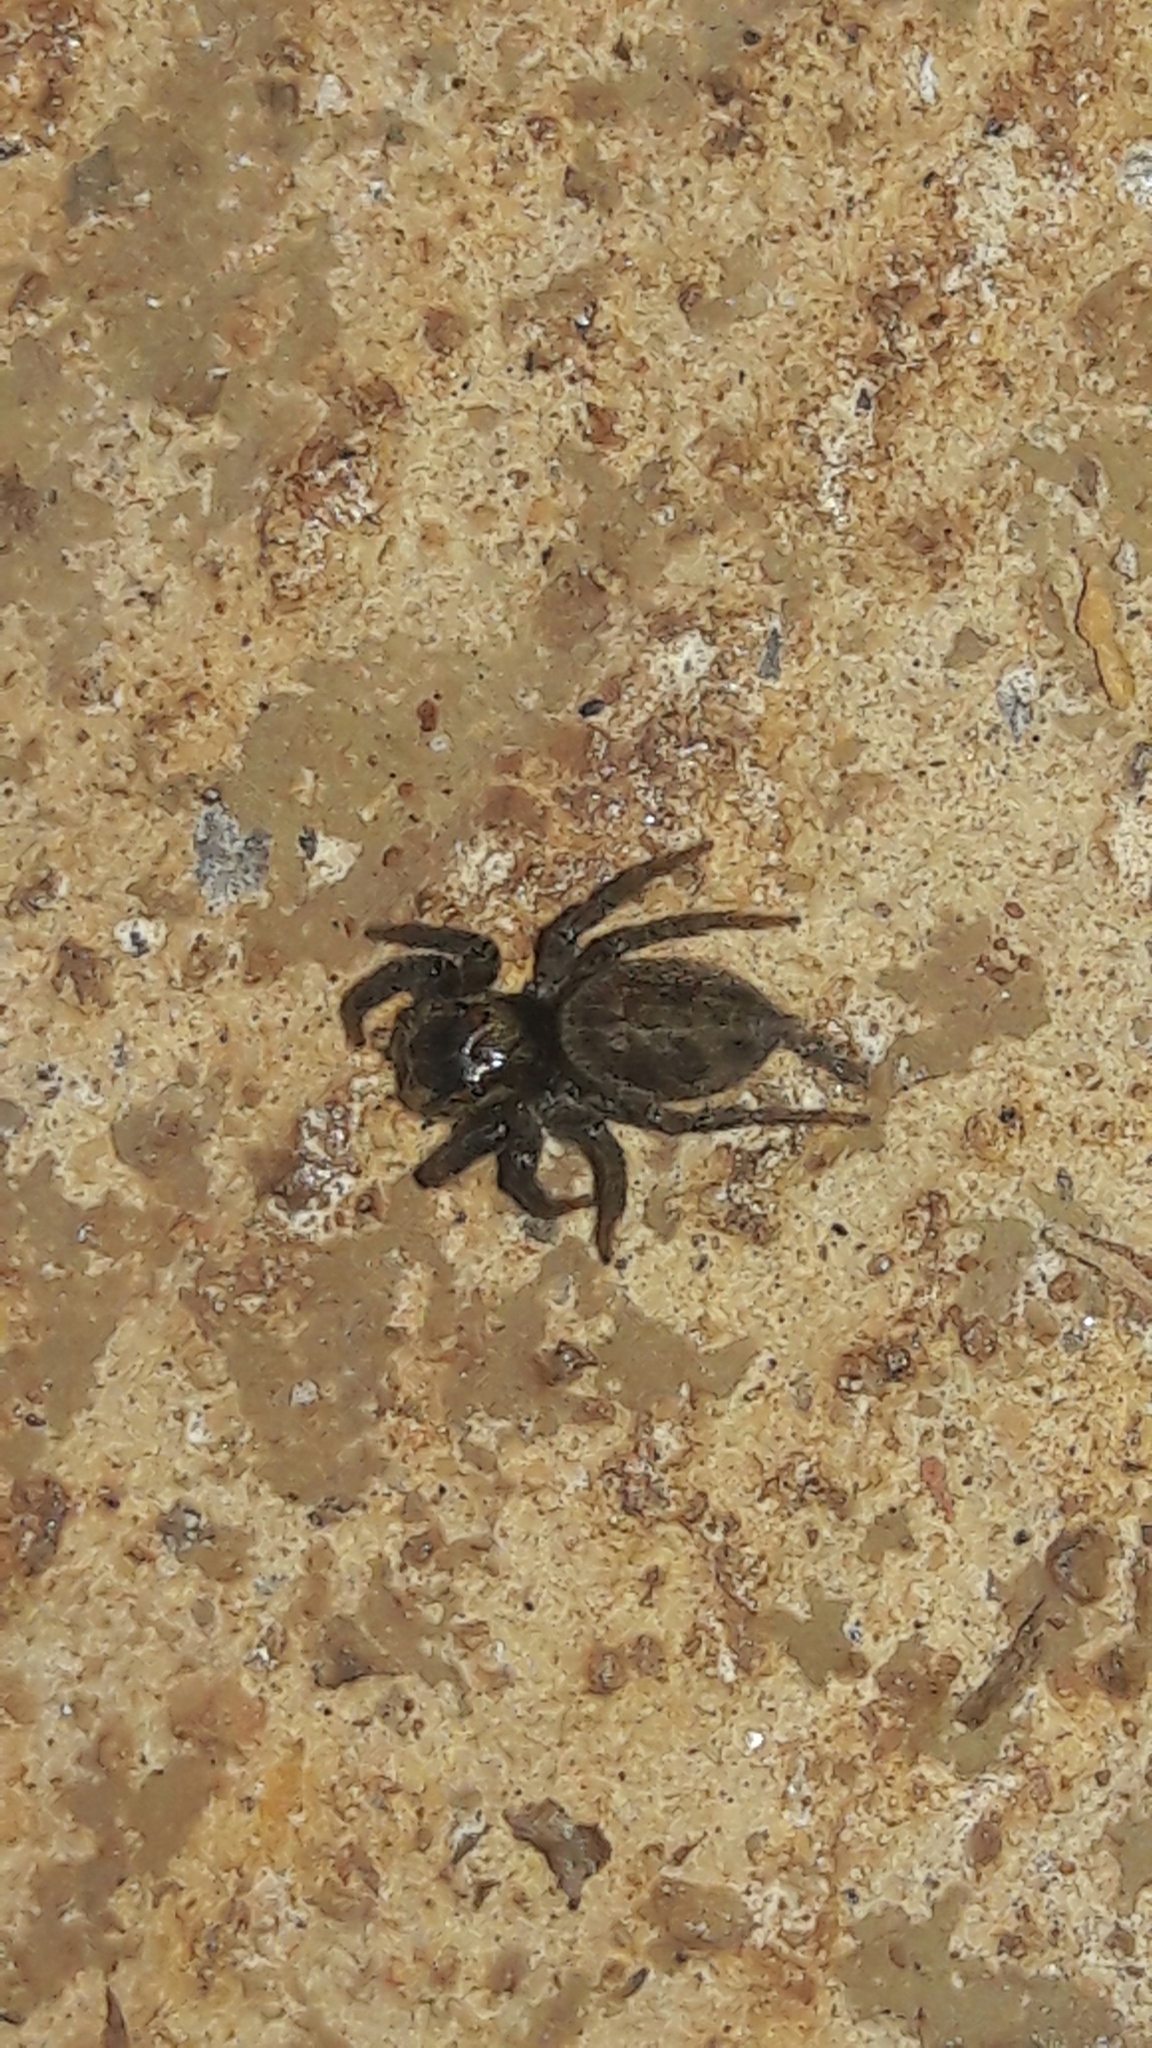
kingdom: Animalia
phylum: Arthropoda
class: Arachnida
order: Araneae
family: Salticidae
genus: Hasarius
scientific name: Hasarius adansoni
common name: Jumping spider
